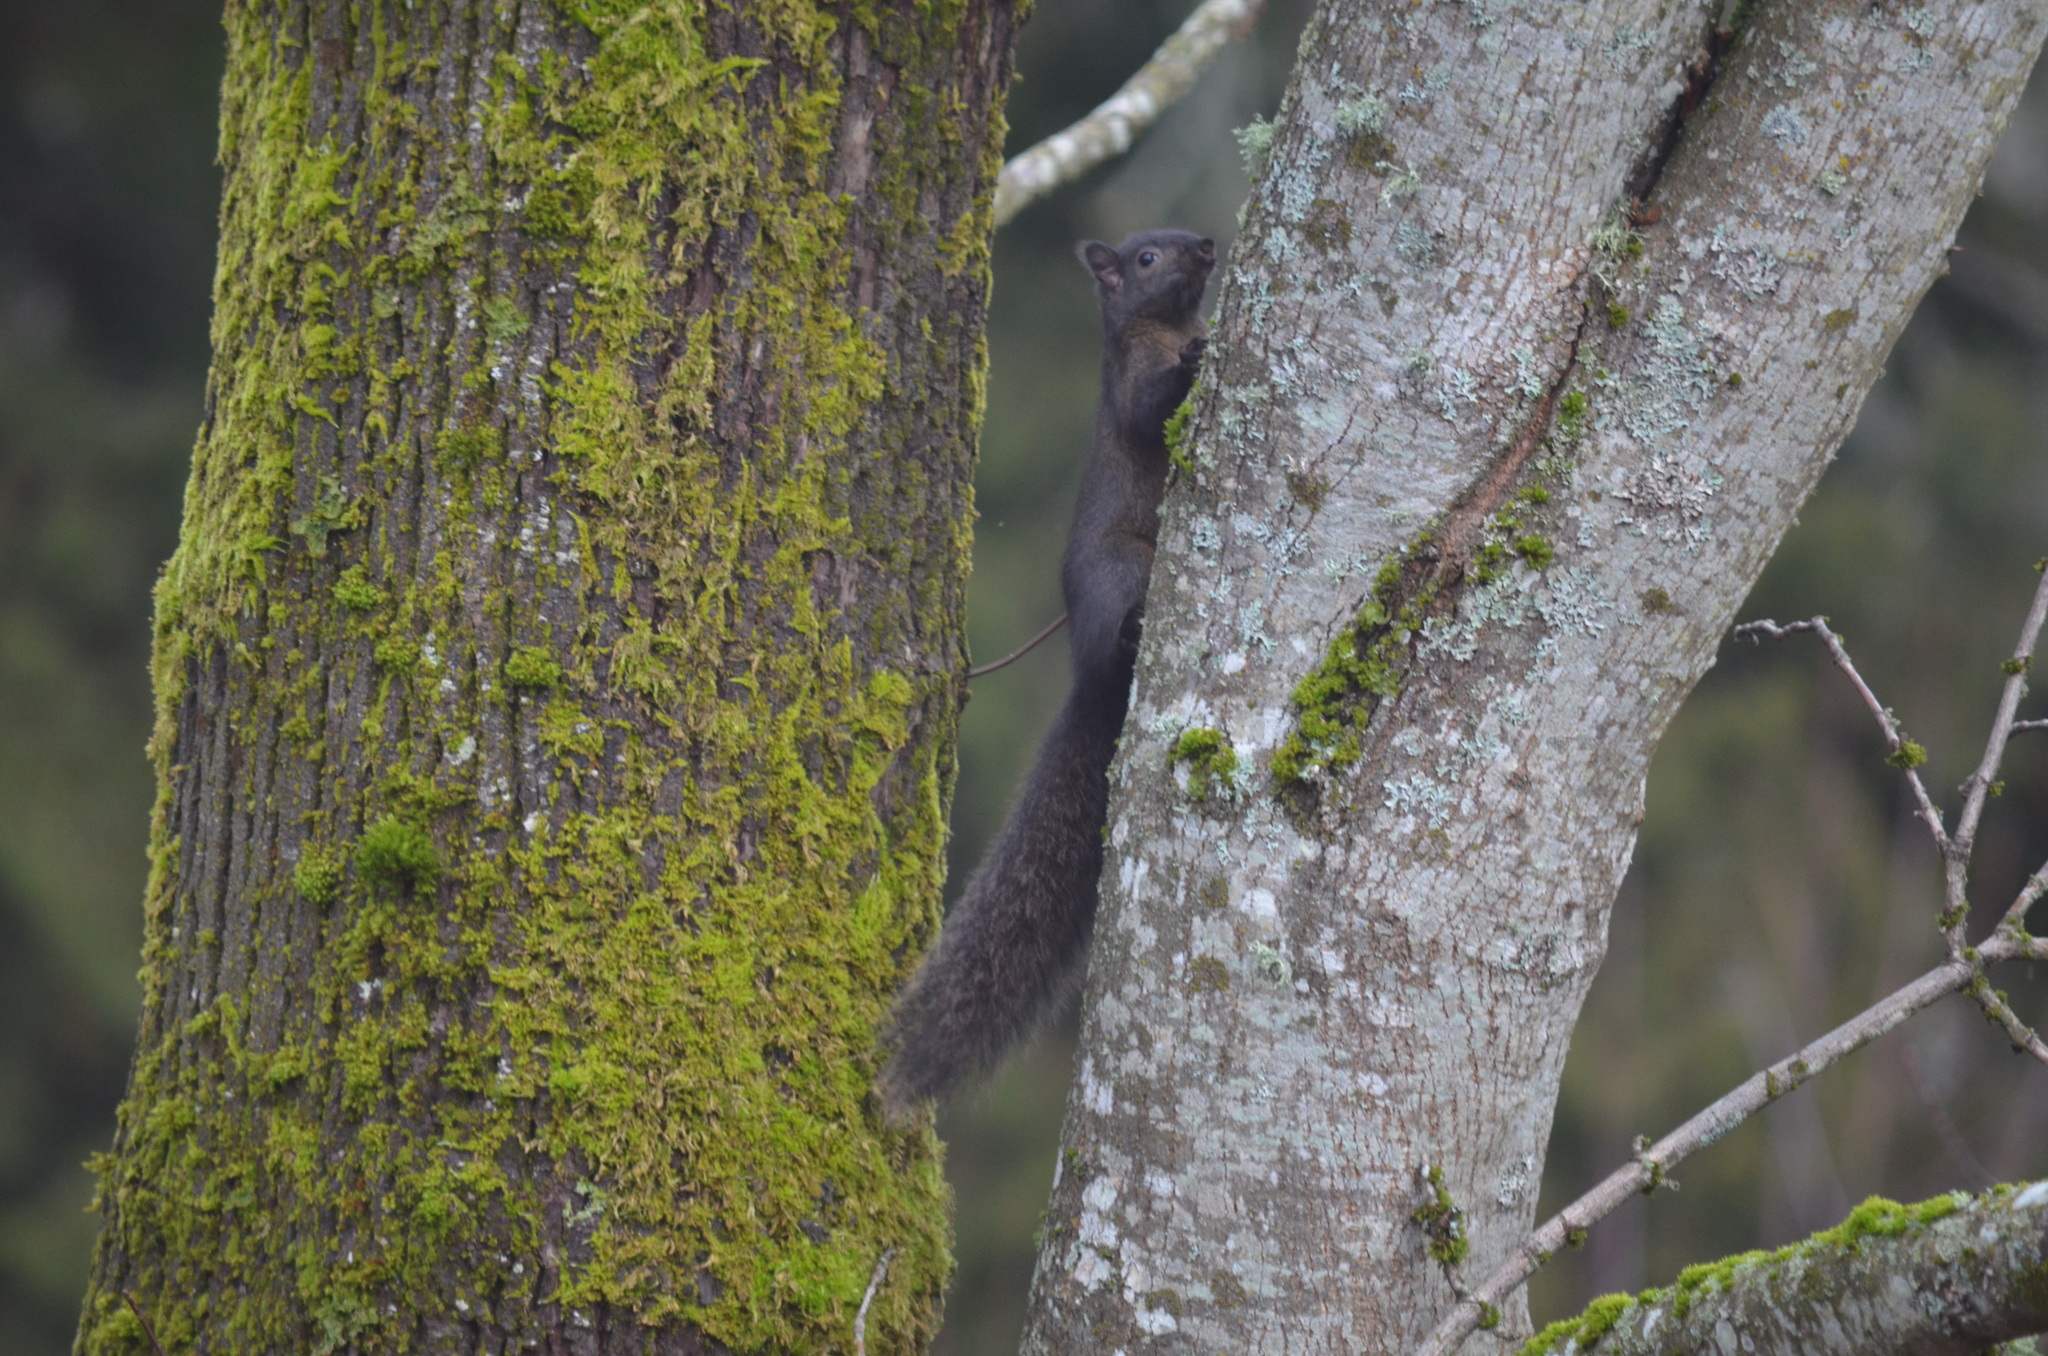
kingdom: Animalia
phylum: Chordata
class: Mammalia
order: Rodentia
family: Sciuridae
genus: Sciurus
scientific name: Sciurus carolinensis
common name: Eastern gray squirrel
